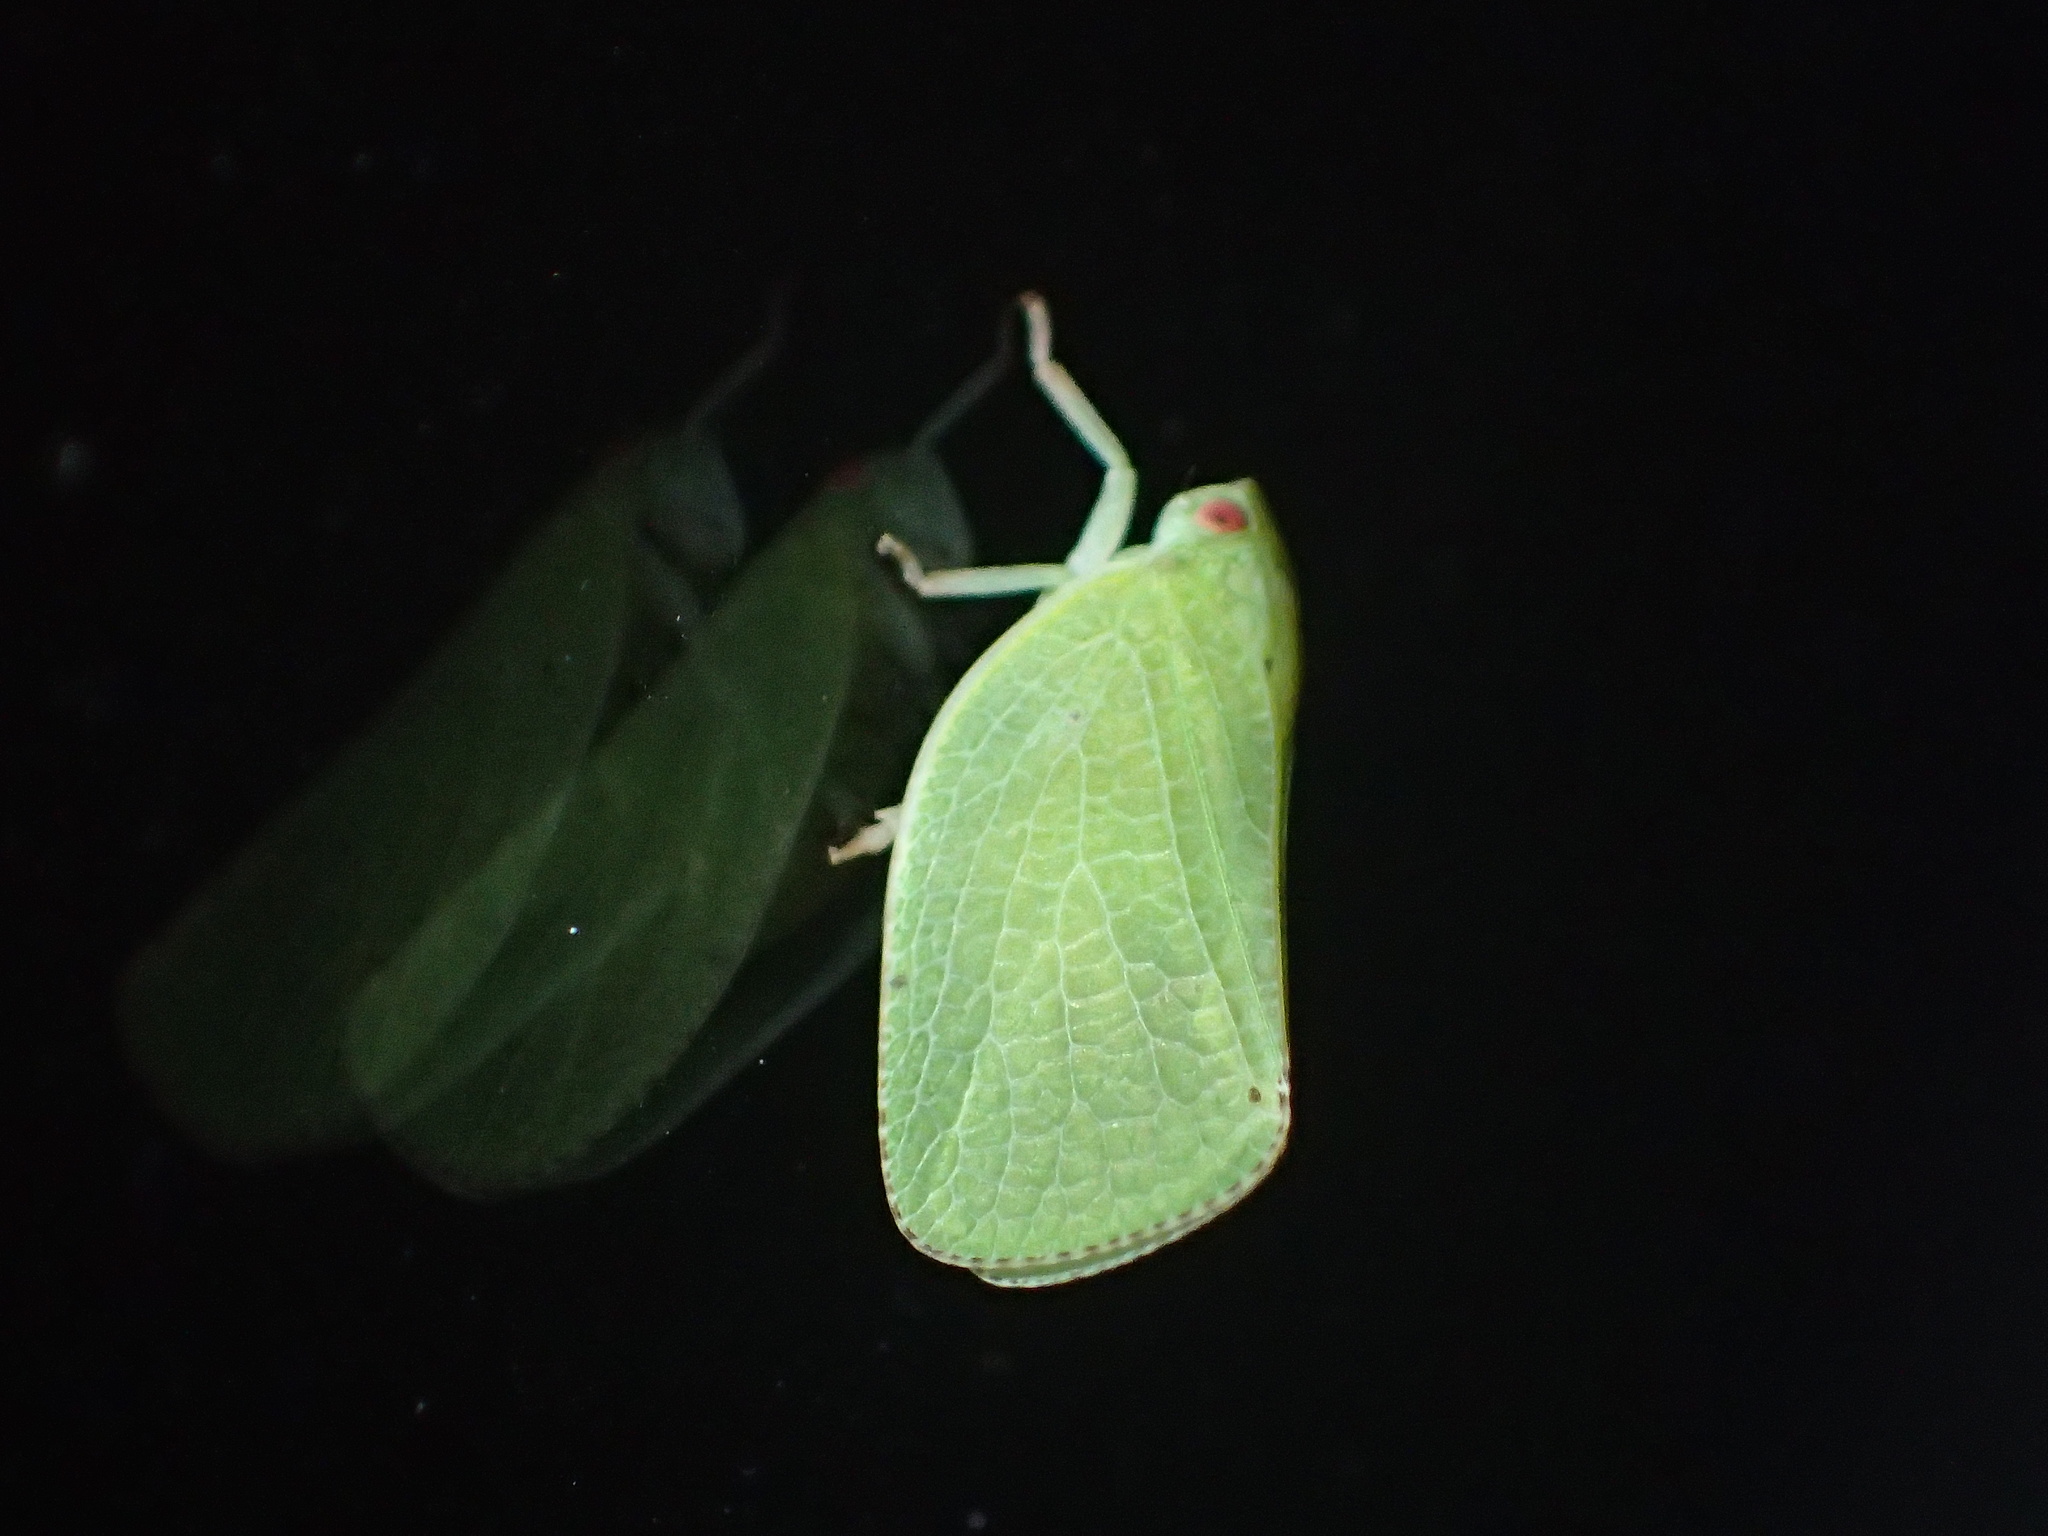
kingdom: Animalia
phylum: Arthropoda
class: Insecta
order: Hemiptera
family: Acanaloniidae
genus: Acanalonia
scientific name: Acanalonia conica
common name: Green cone-headed planthopper
